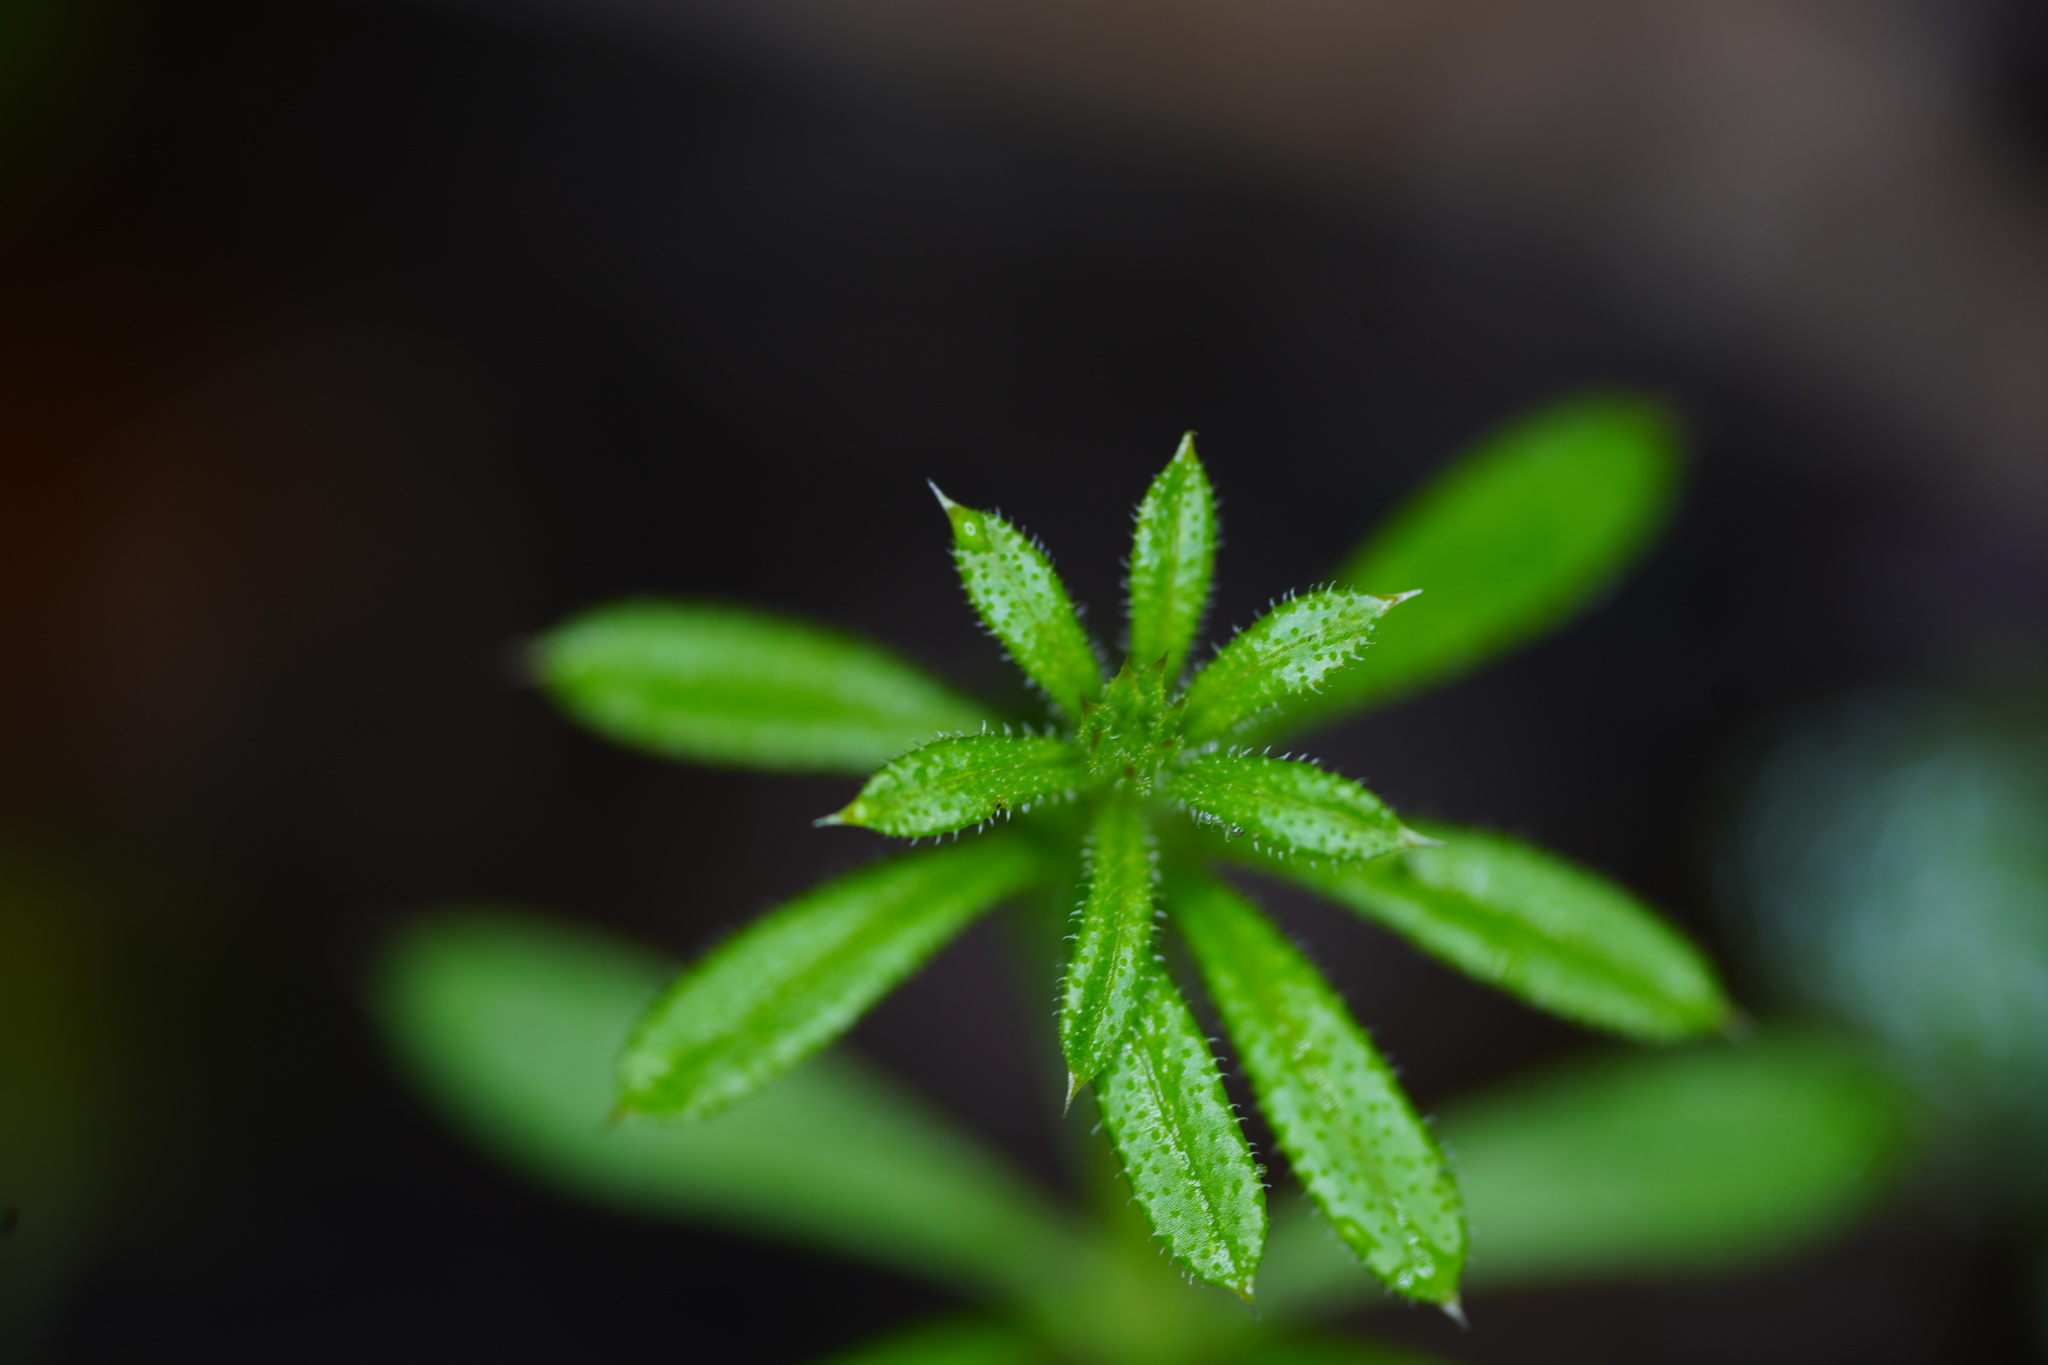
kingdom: Plantae
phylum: Tracheophyta
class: Magnoliopsida
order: Gentianales
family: Rubiaceae
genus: Galium
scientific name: Galium aparine
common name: Cleavers
